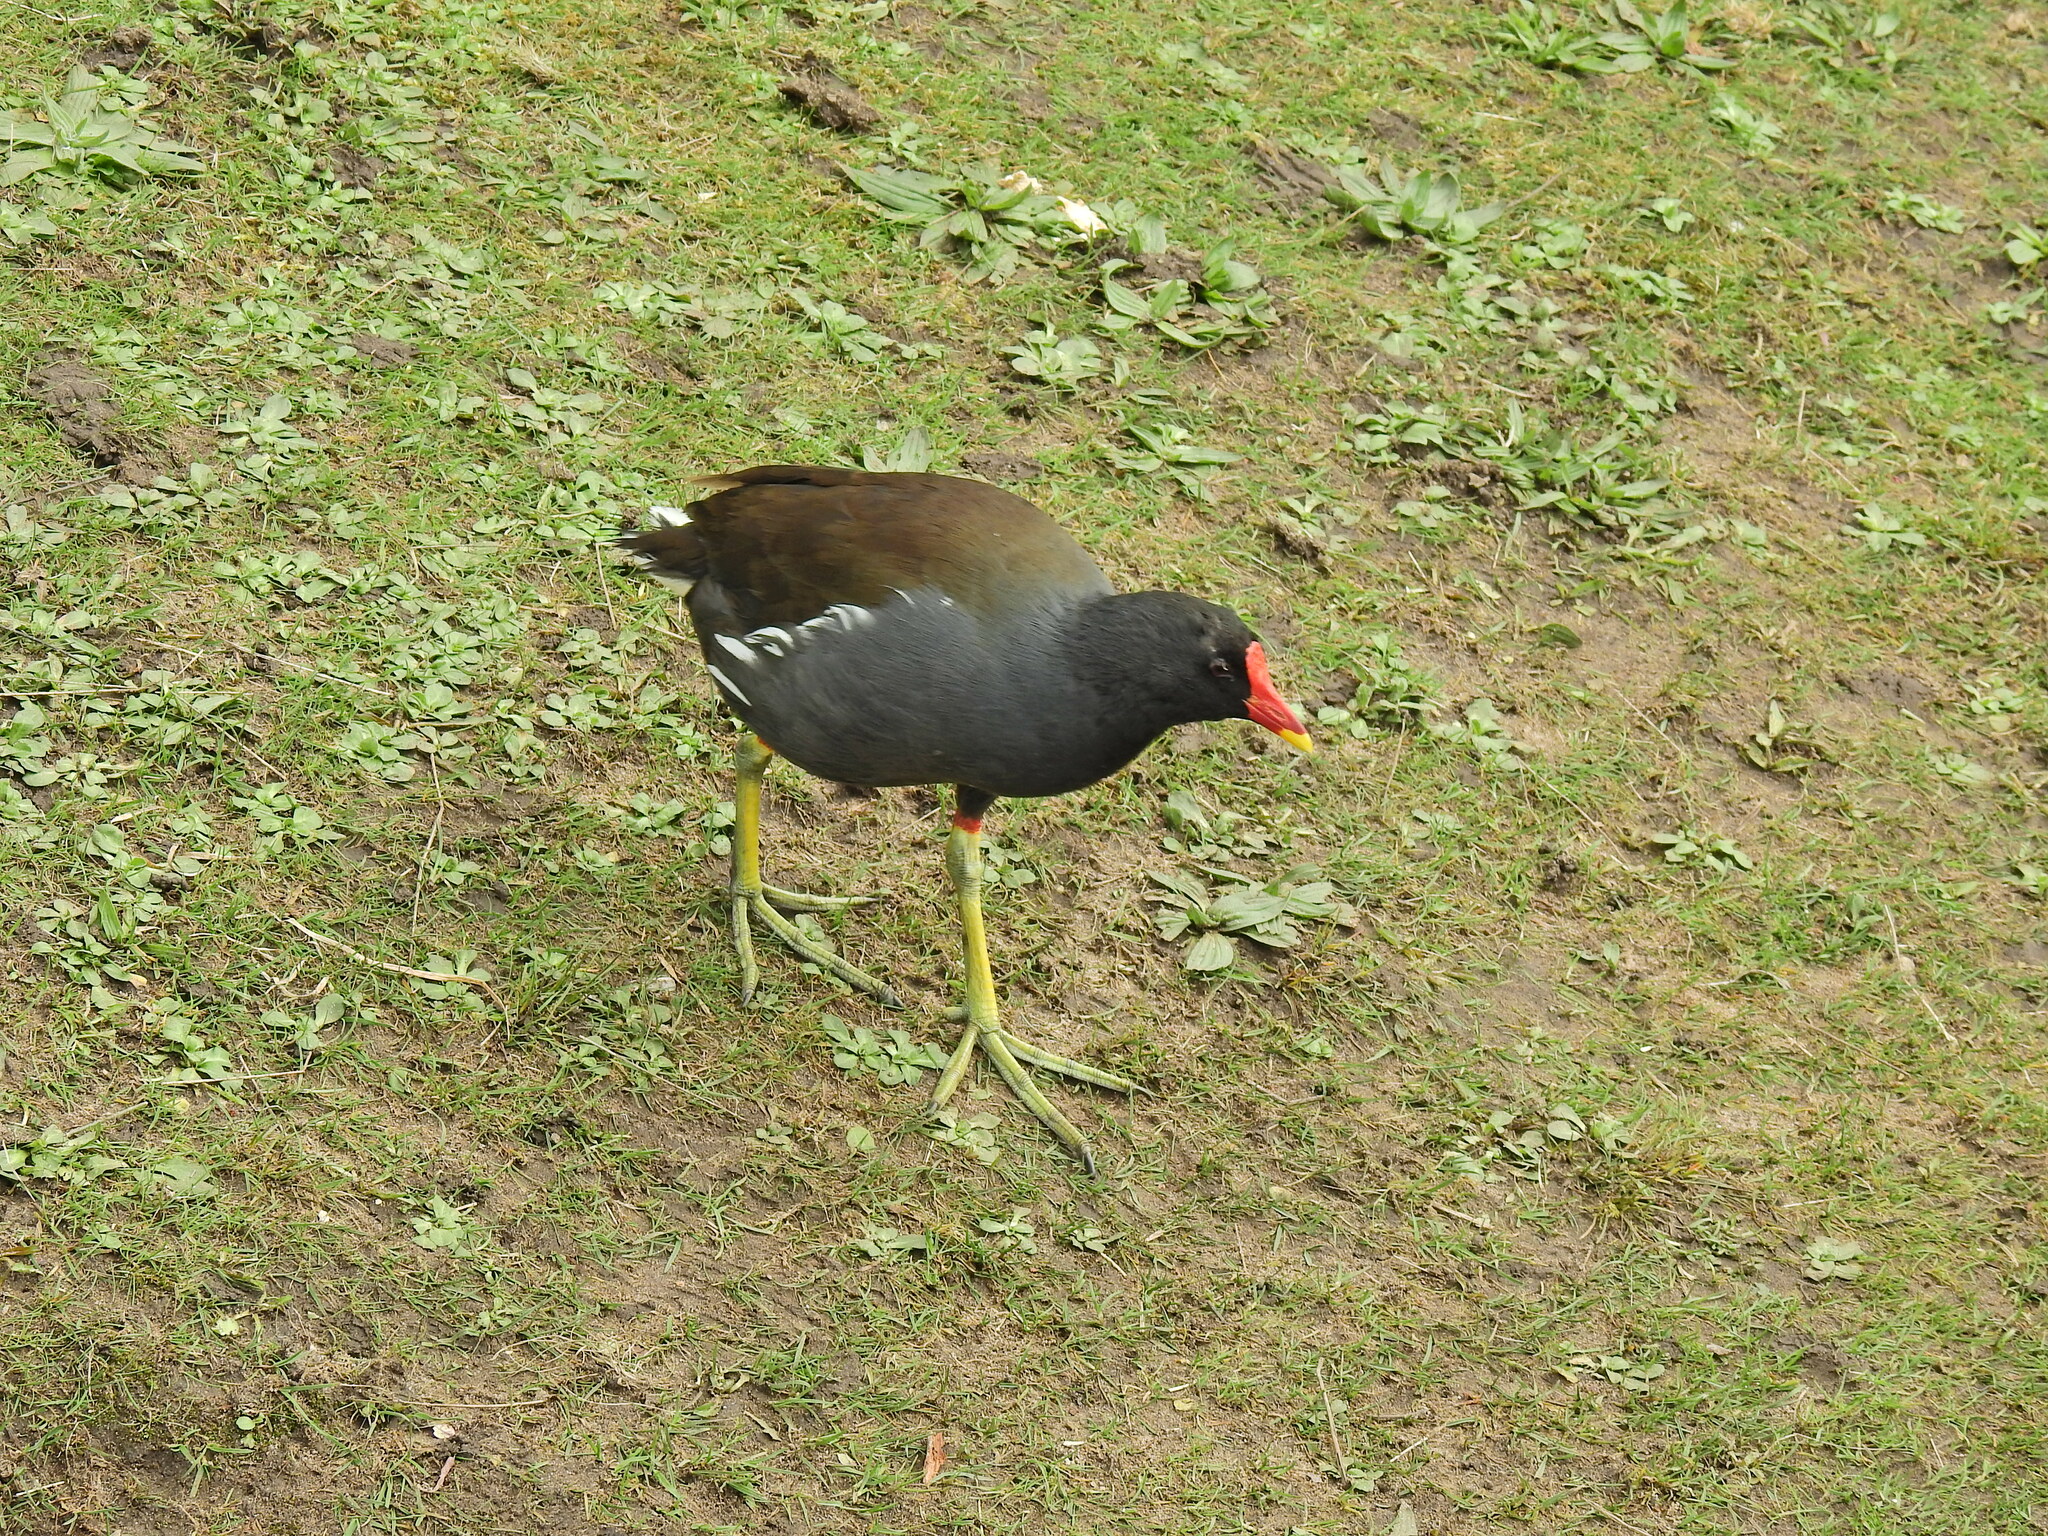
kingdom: Animalia
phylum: Chordata
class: Aves
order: Gruiformes
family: Rallidae
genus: Gallinula
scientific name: Gallinula chloropus
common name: Common moorhen
